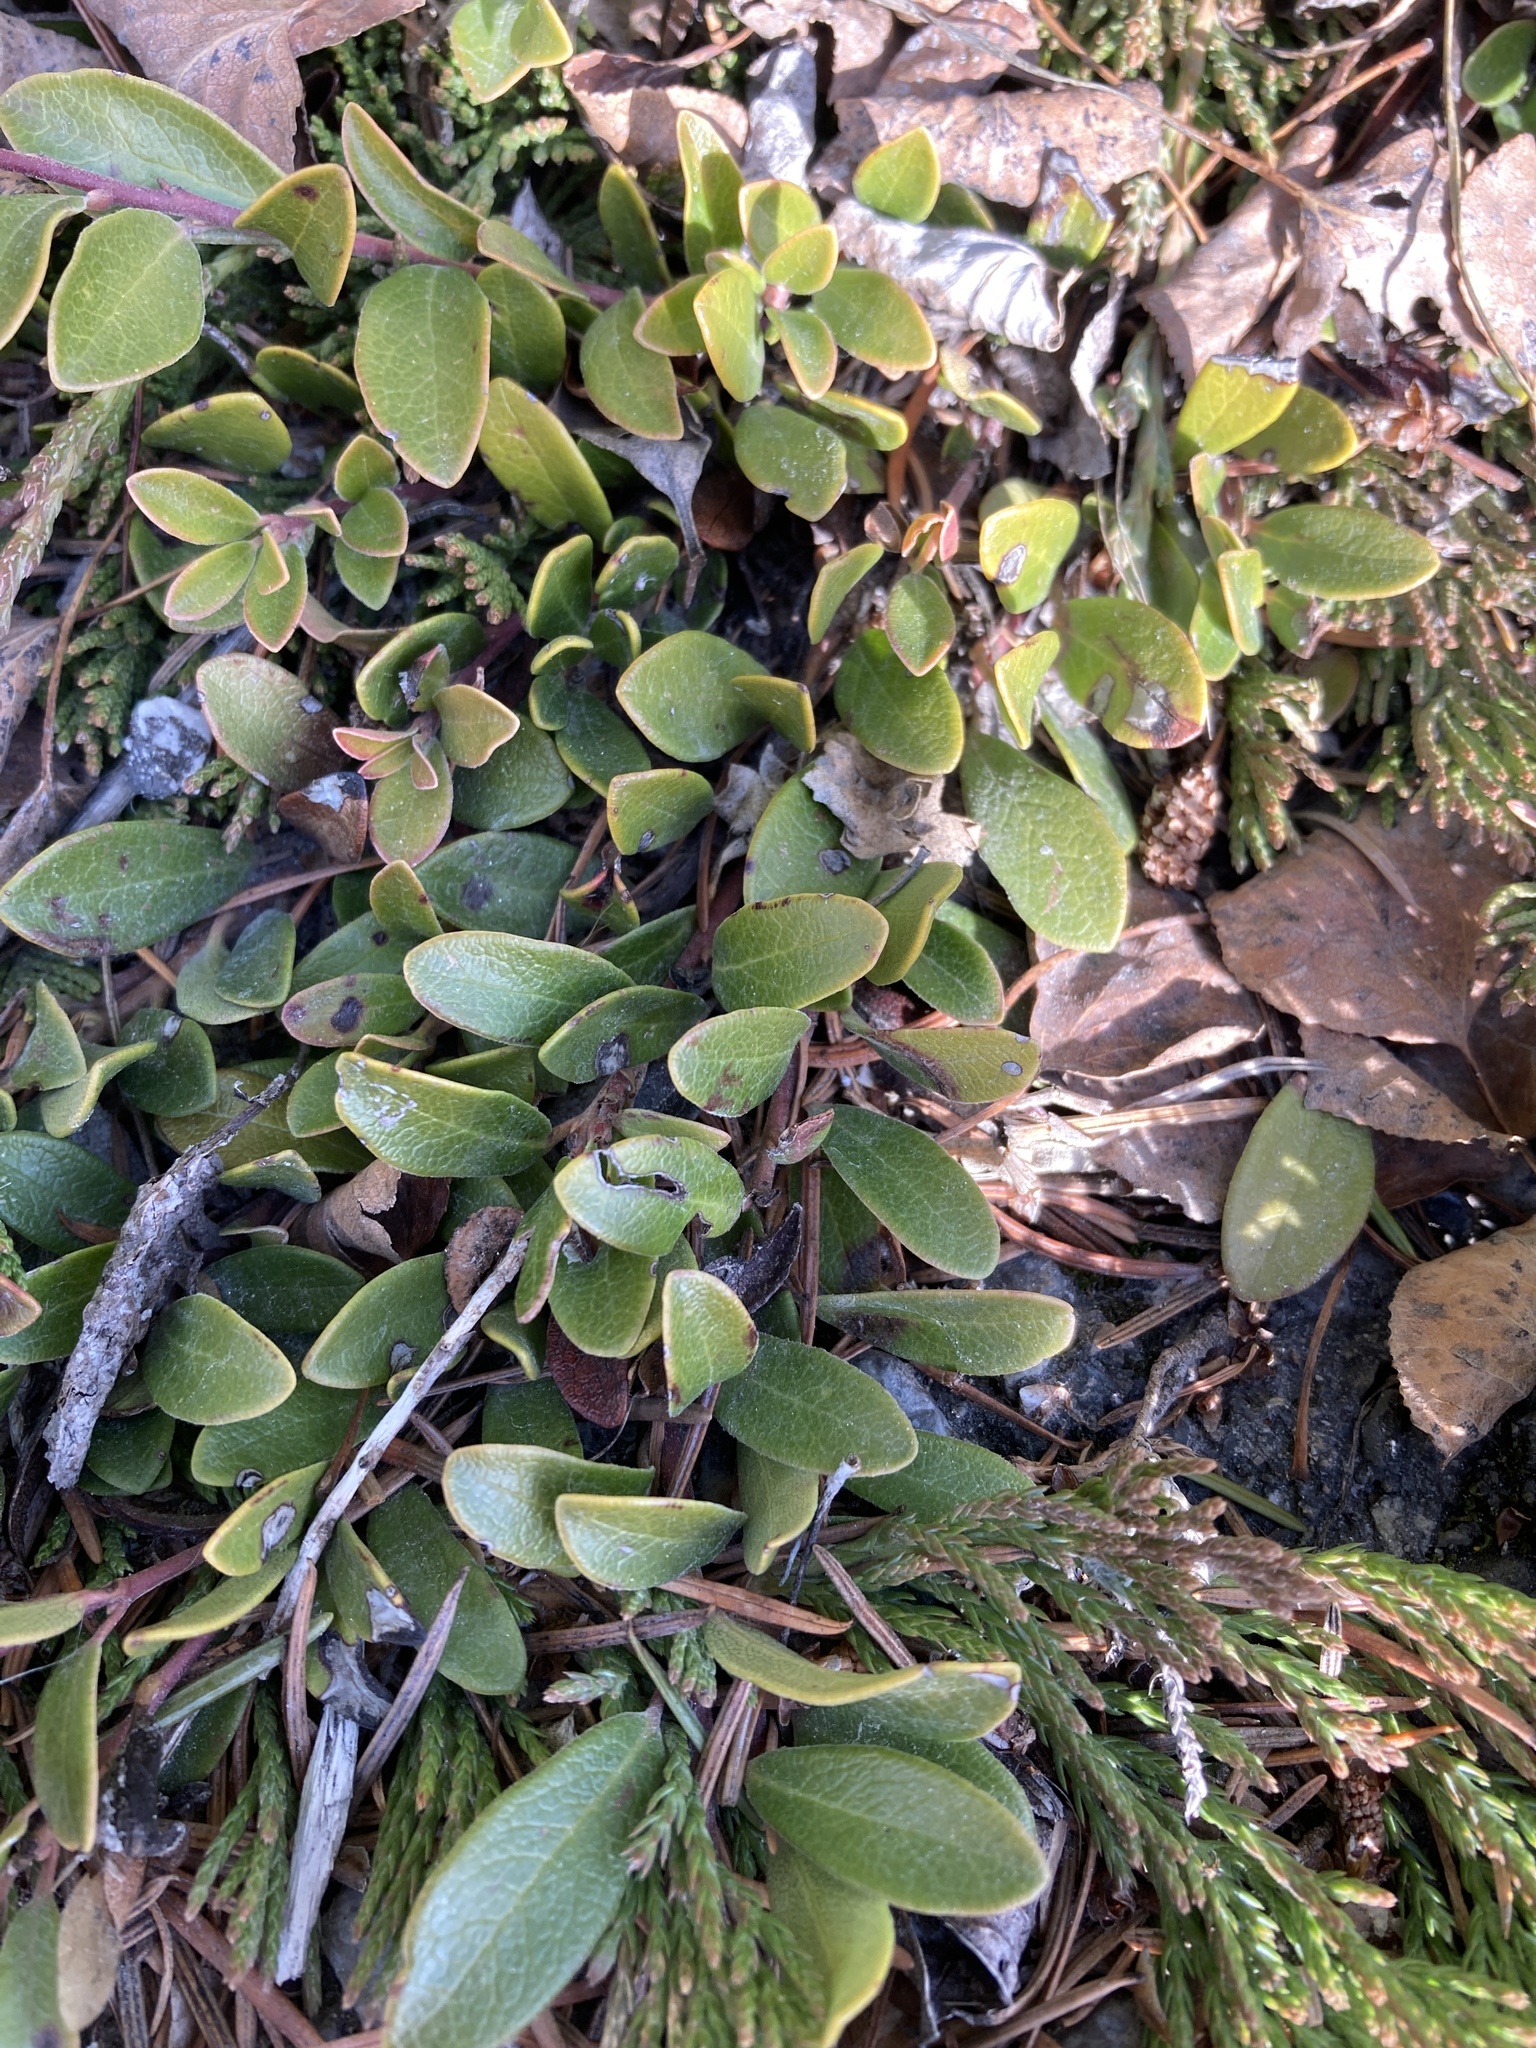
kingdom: Plantae
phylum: Tracheophyta
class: Magnoliopsida
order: Ericales
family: Ericaceae
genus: Arctostaphylos
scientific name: Arctostaphylos uva-ursi
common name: Bearberry
